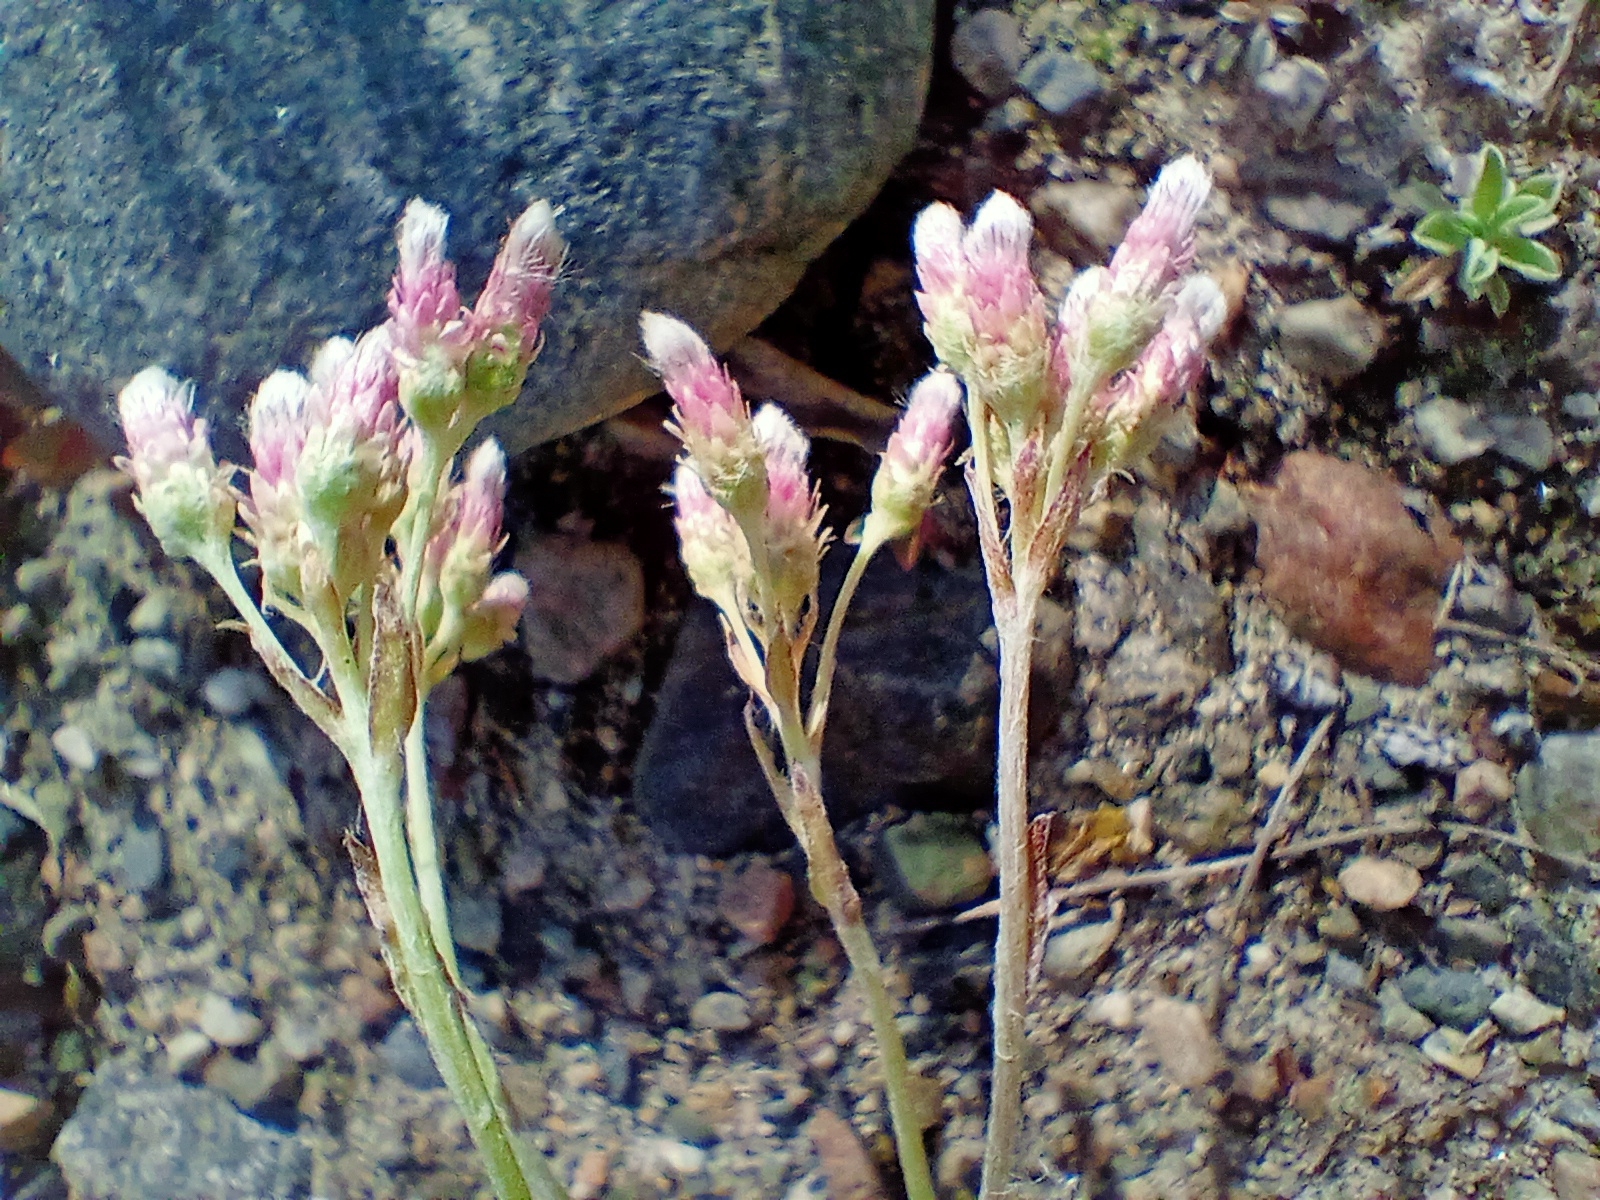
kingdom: Plantae
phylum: Tracheophyta
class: Magnoliopsida
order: Asterales
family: Asteraceae
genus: Antennaria
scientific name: Antennaria dioica
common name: Mountain everlasting
